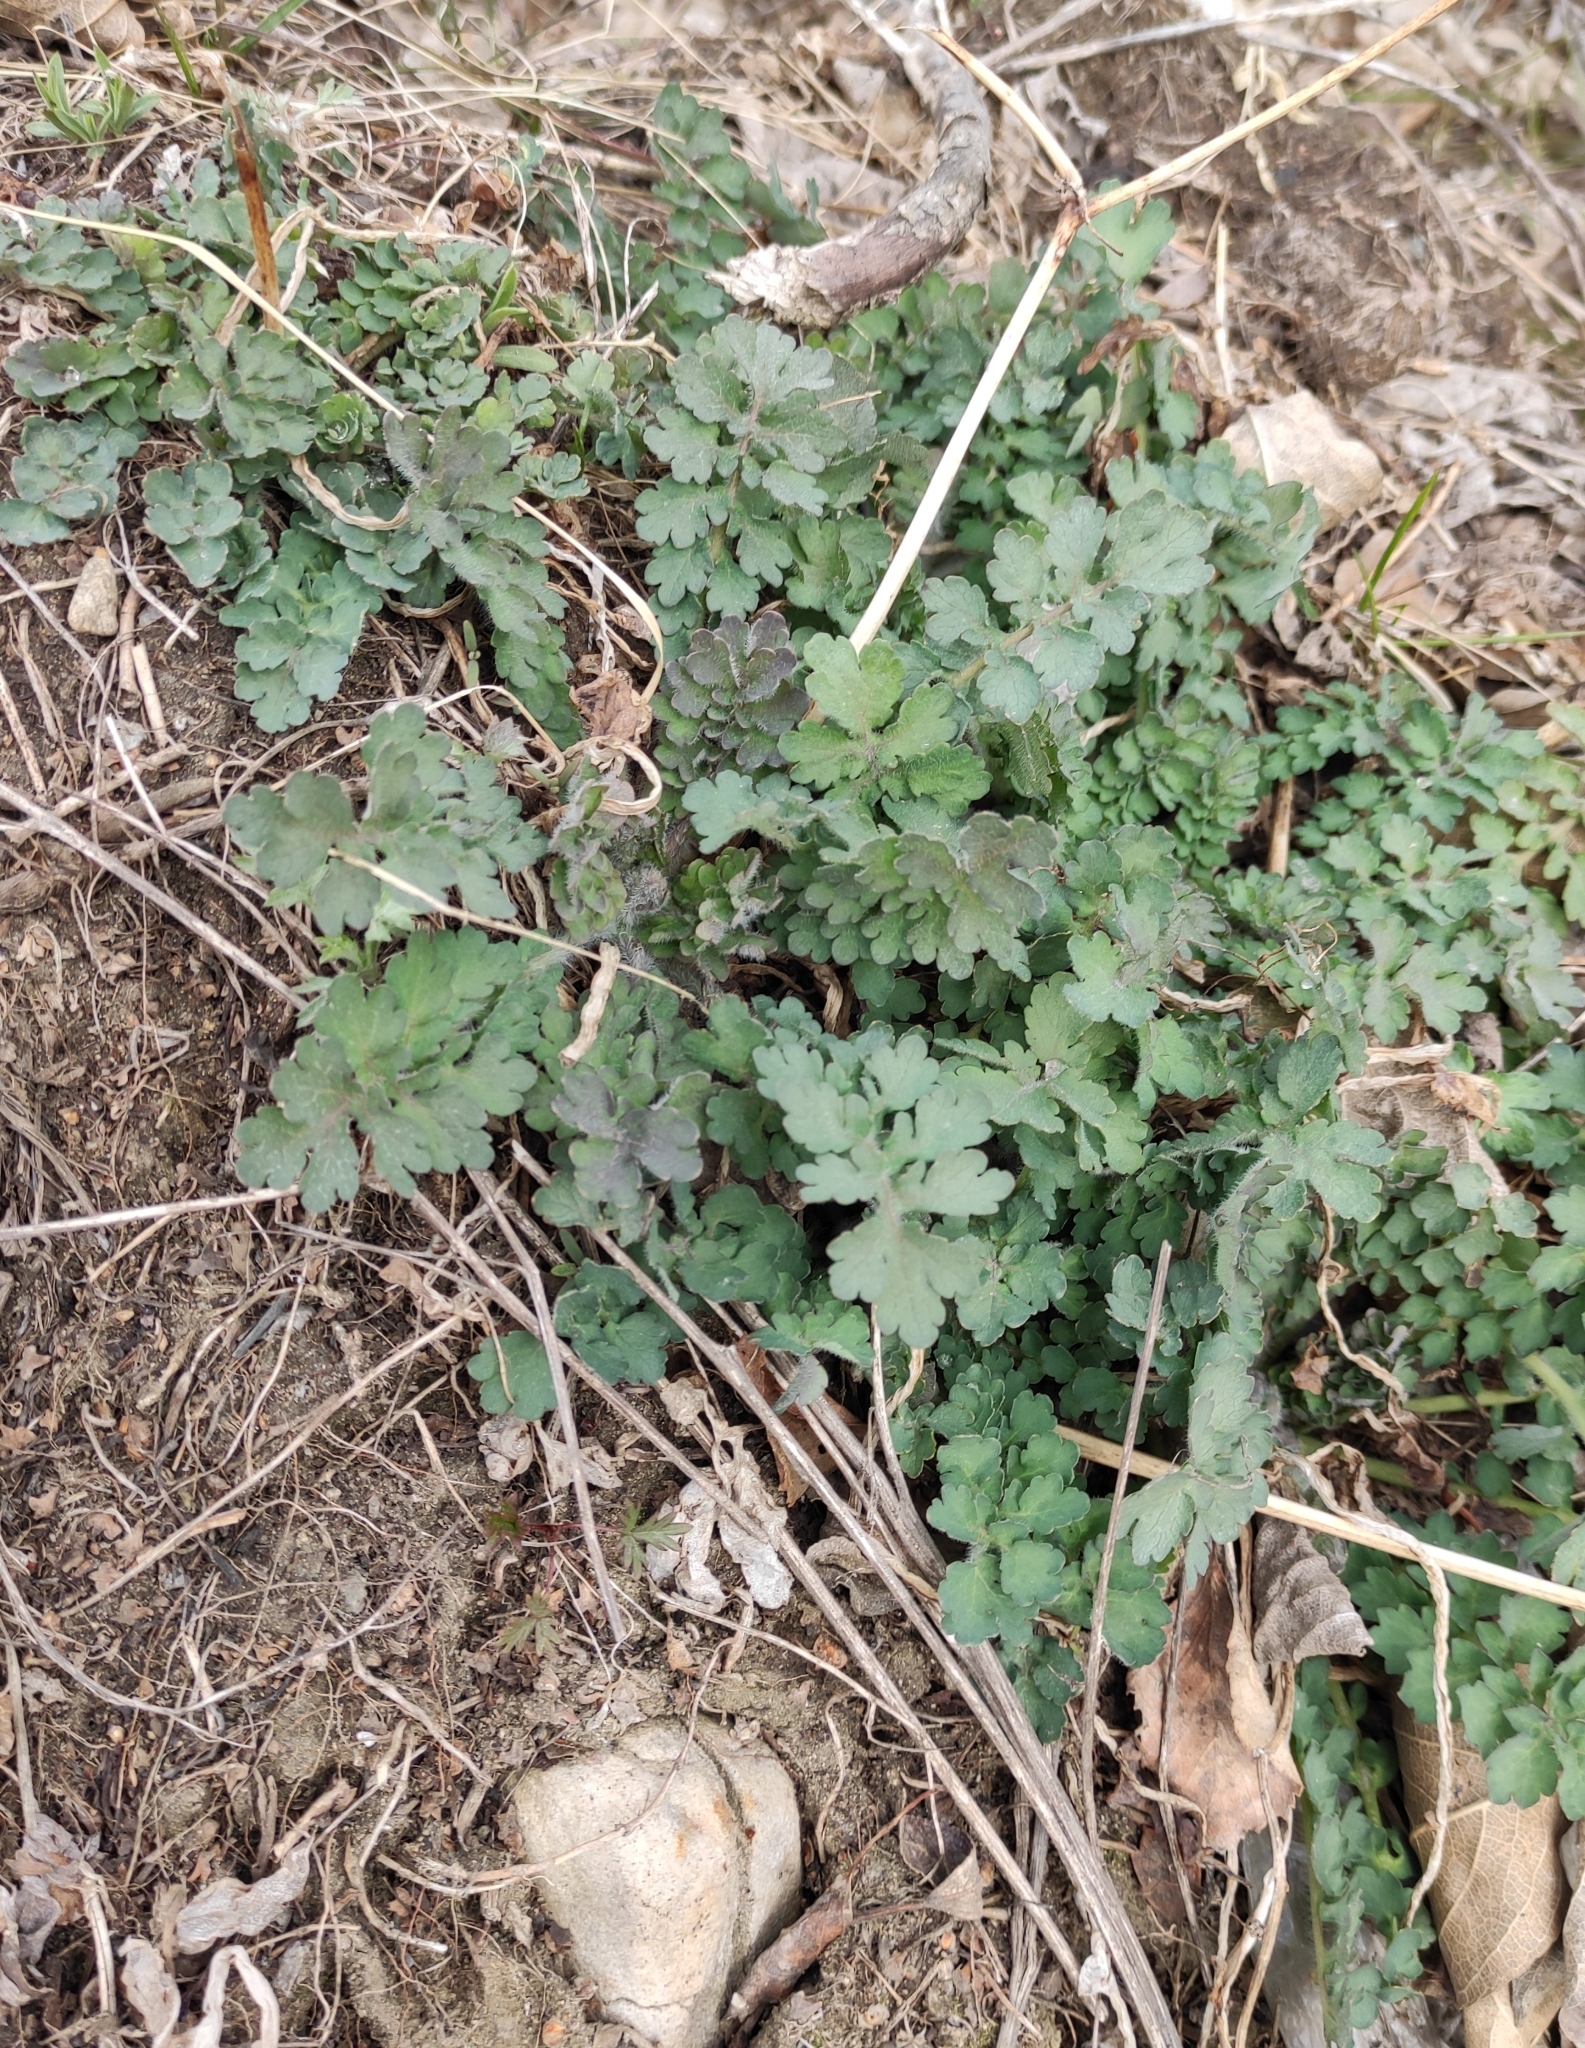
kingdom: Plantae
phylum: Tracheophyta
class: Magnoliopsida
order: Ranunculales
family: Papaveraceae
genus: Chelidonium
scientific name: Chelidonium majus
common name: Greater celandine
